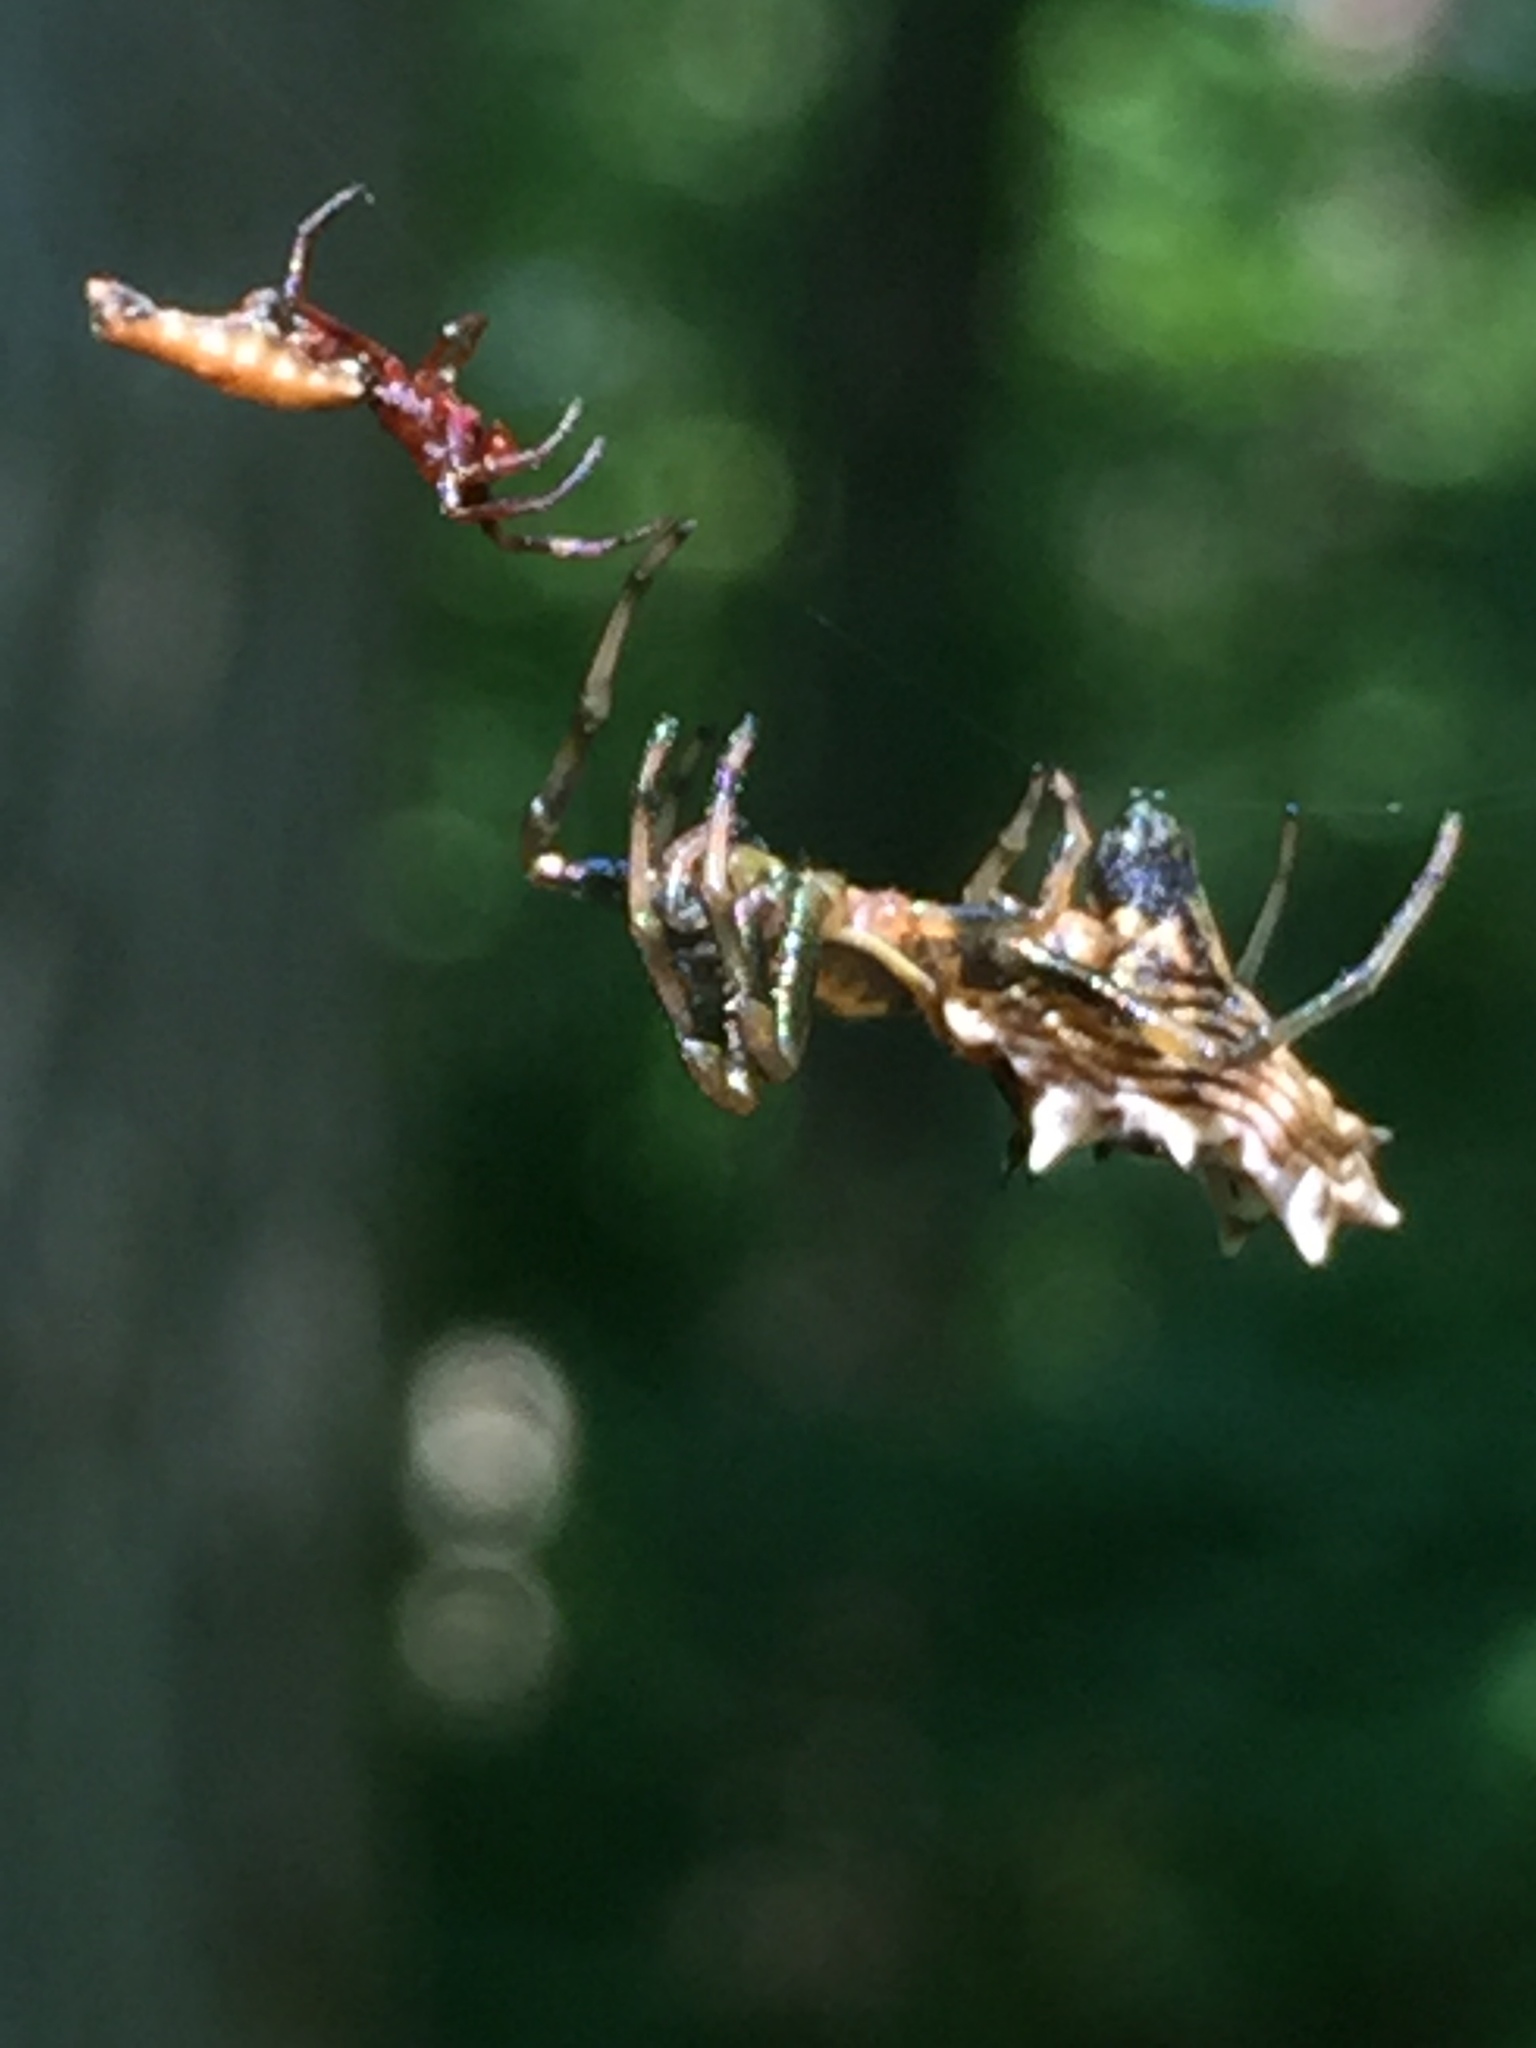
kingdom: Animalia
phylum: Arthropoda
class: Arachnida
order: Araneae
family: Araneidae
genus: Micrathena
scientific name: Micrathena gracilis
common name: Orb weavers
